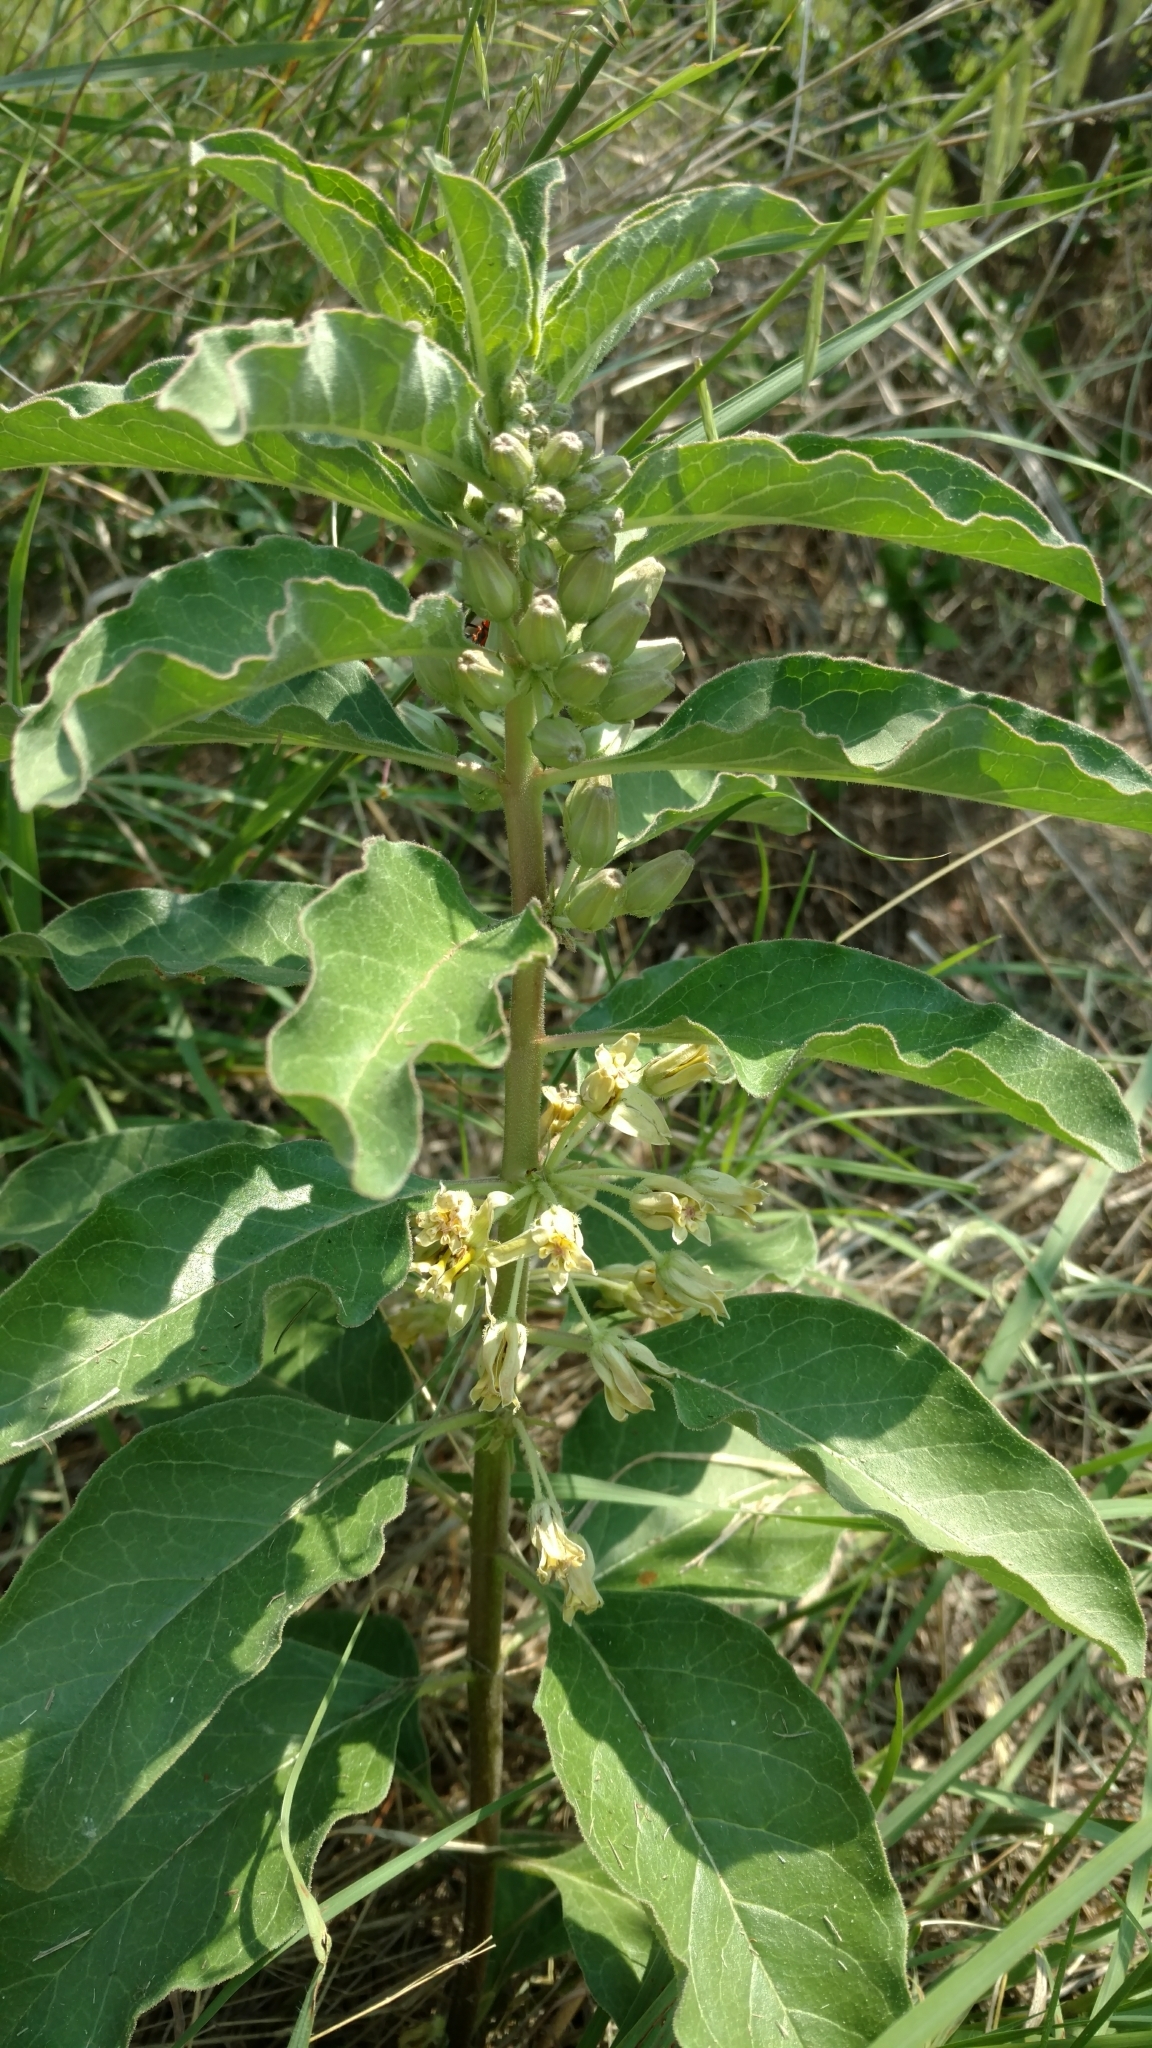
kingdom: Plantae
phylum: Tracheophyta
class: Magnoliopsida
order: Gentianales
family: Apocynaceae
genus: Asclepias
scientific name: Asclepias oenotheroides
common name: Zizotes milkweed
